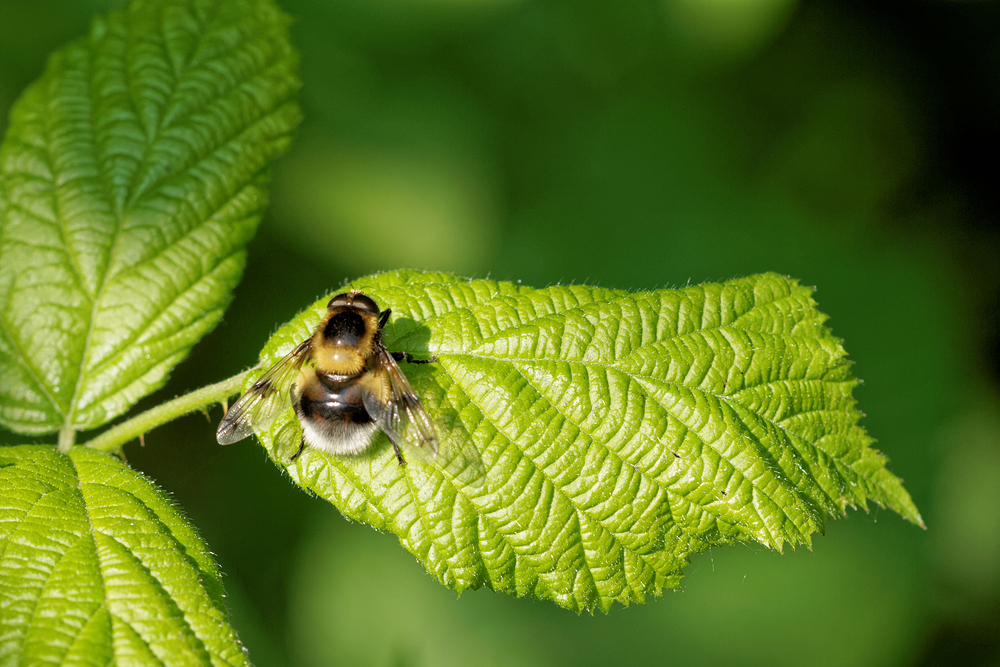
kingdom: Animalia
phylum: Arthropoda
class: Insecta
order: Diptera
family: Syrphidae
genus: Volucella
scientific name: Volucella bombylans
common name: Bumble bee hover fly
